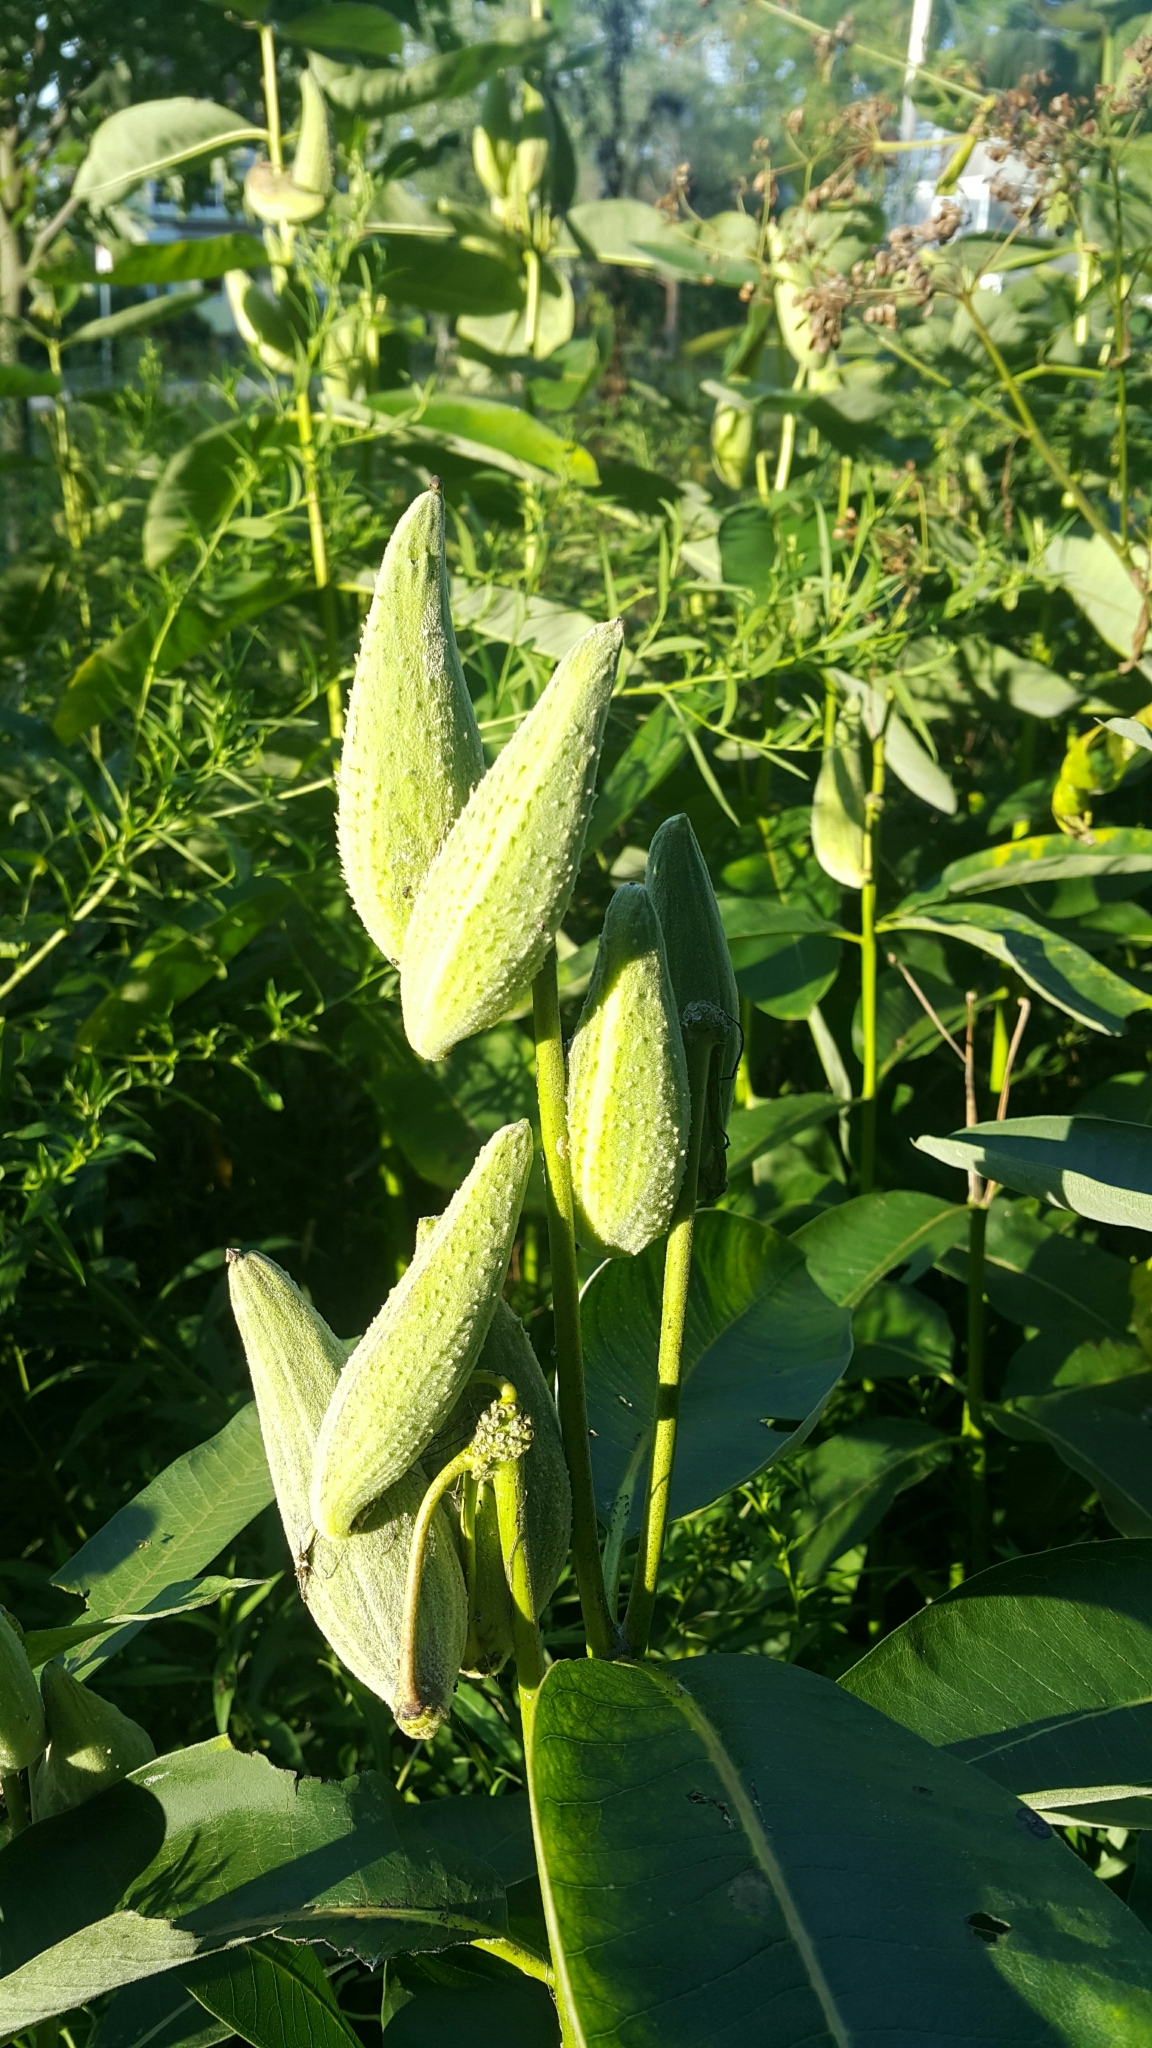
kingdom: Plantae
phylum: Tracheophyta
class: Magnoliopsida
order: Gentianales
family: Apocynaceae
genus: Asclepias
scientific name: Asclepias syriaca
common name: Common milkweed
